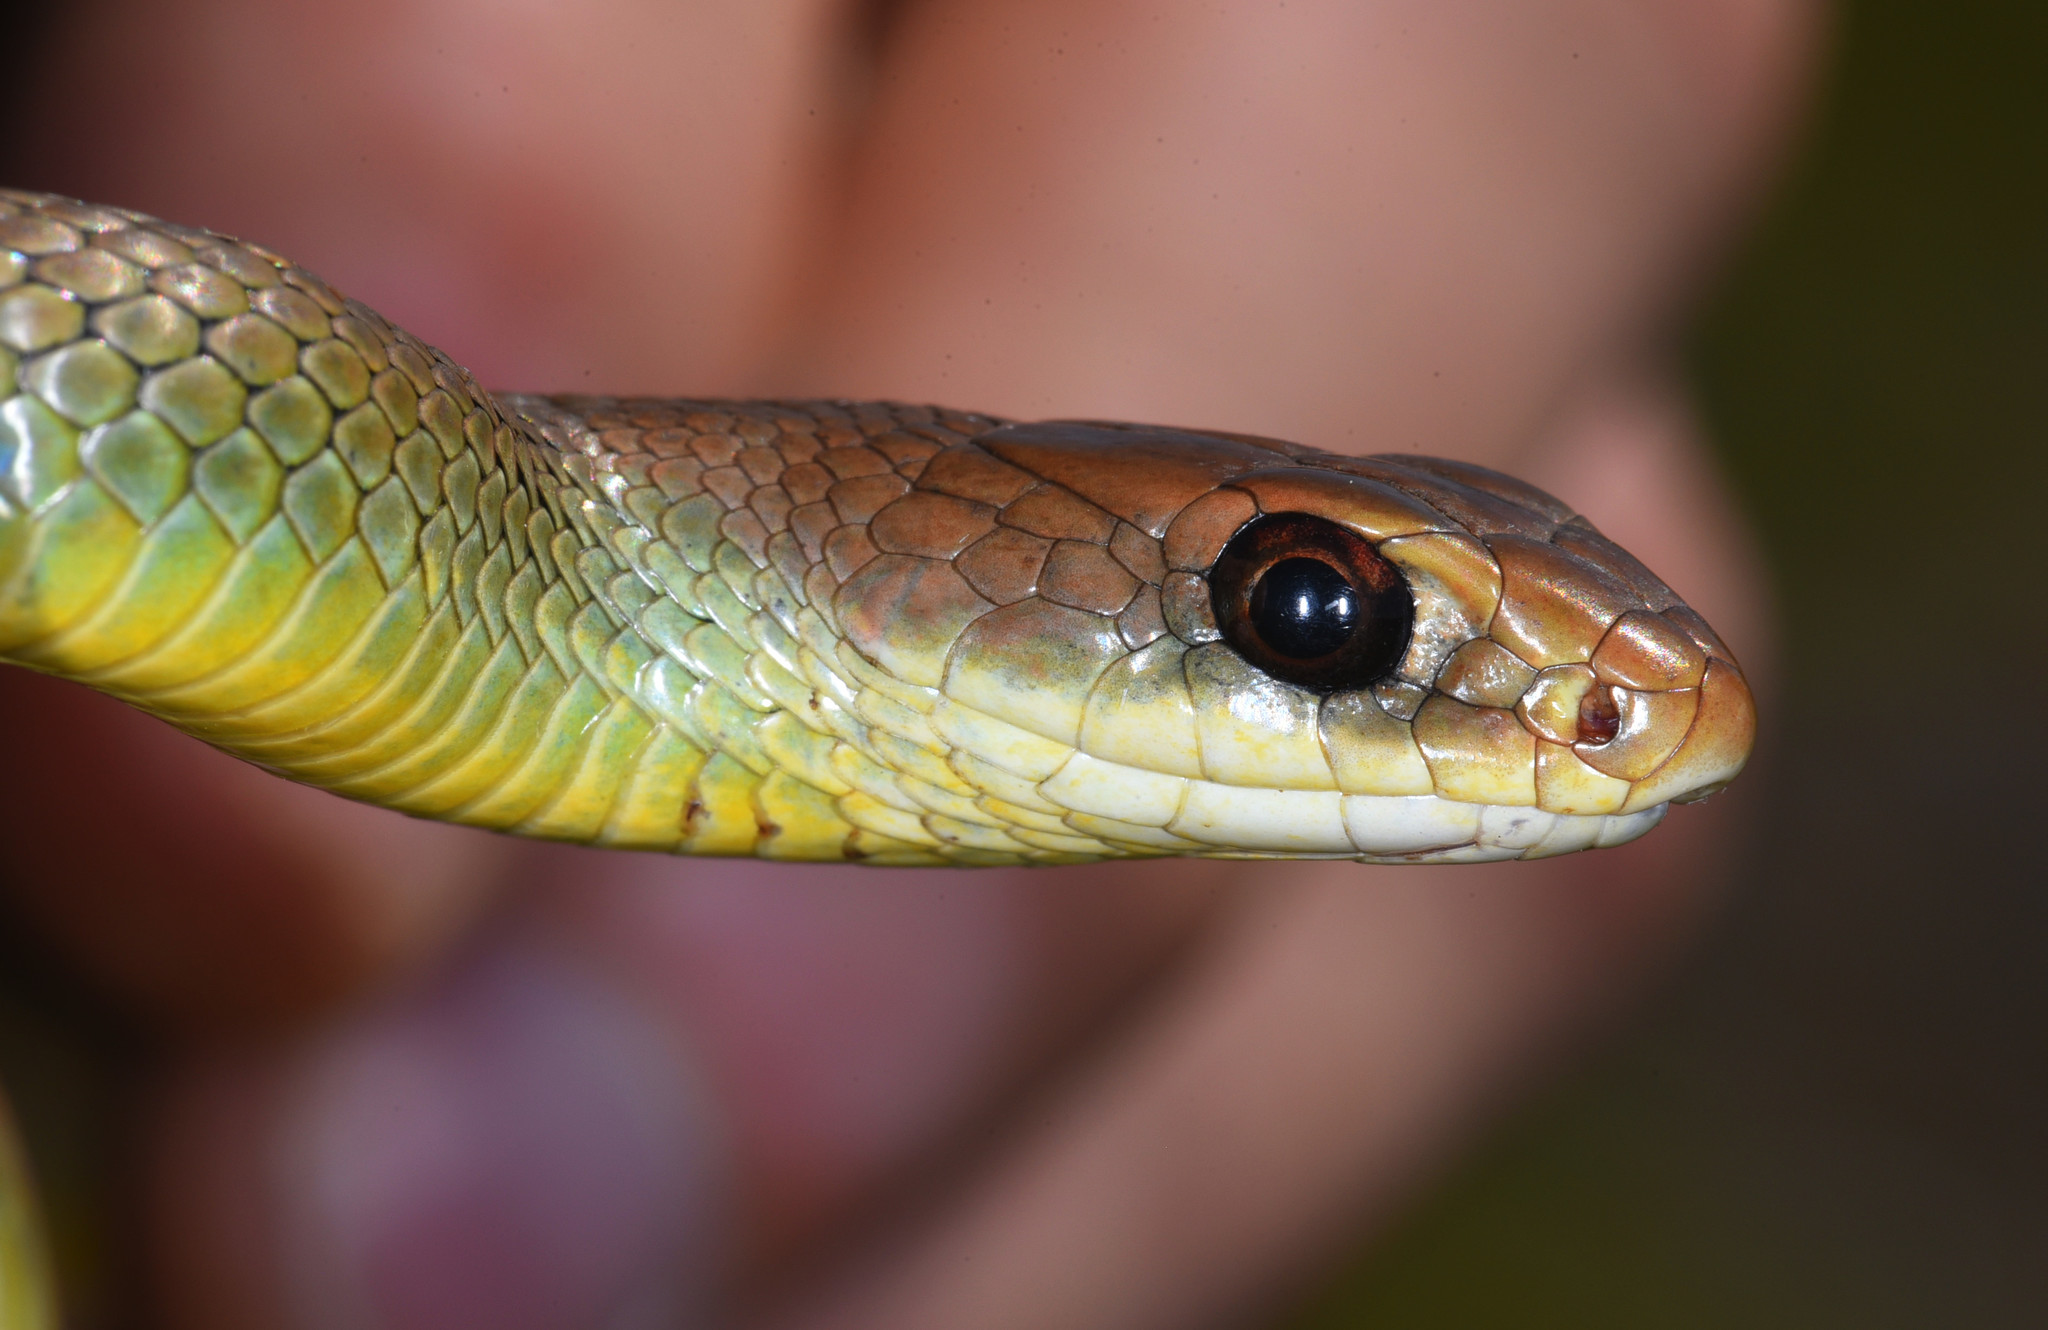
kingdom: Animalia
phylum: Chordata
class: Squamata
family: Colubridae
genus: Coluber
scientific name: Coluber constrictor
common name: Eastern racer
